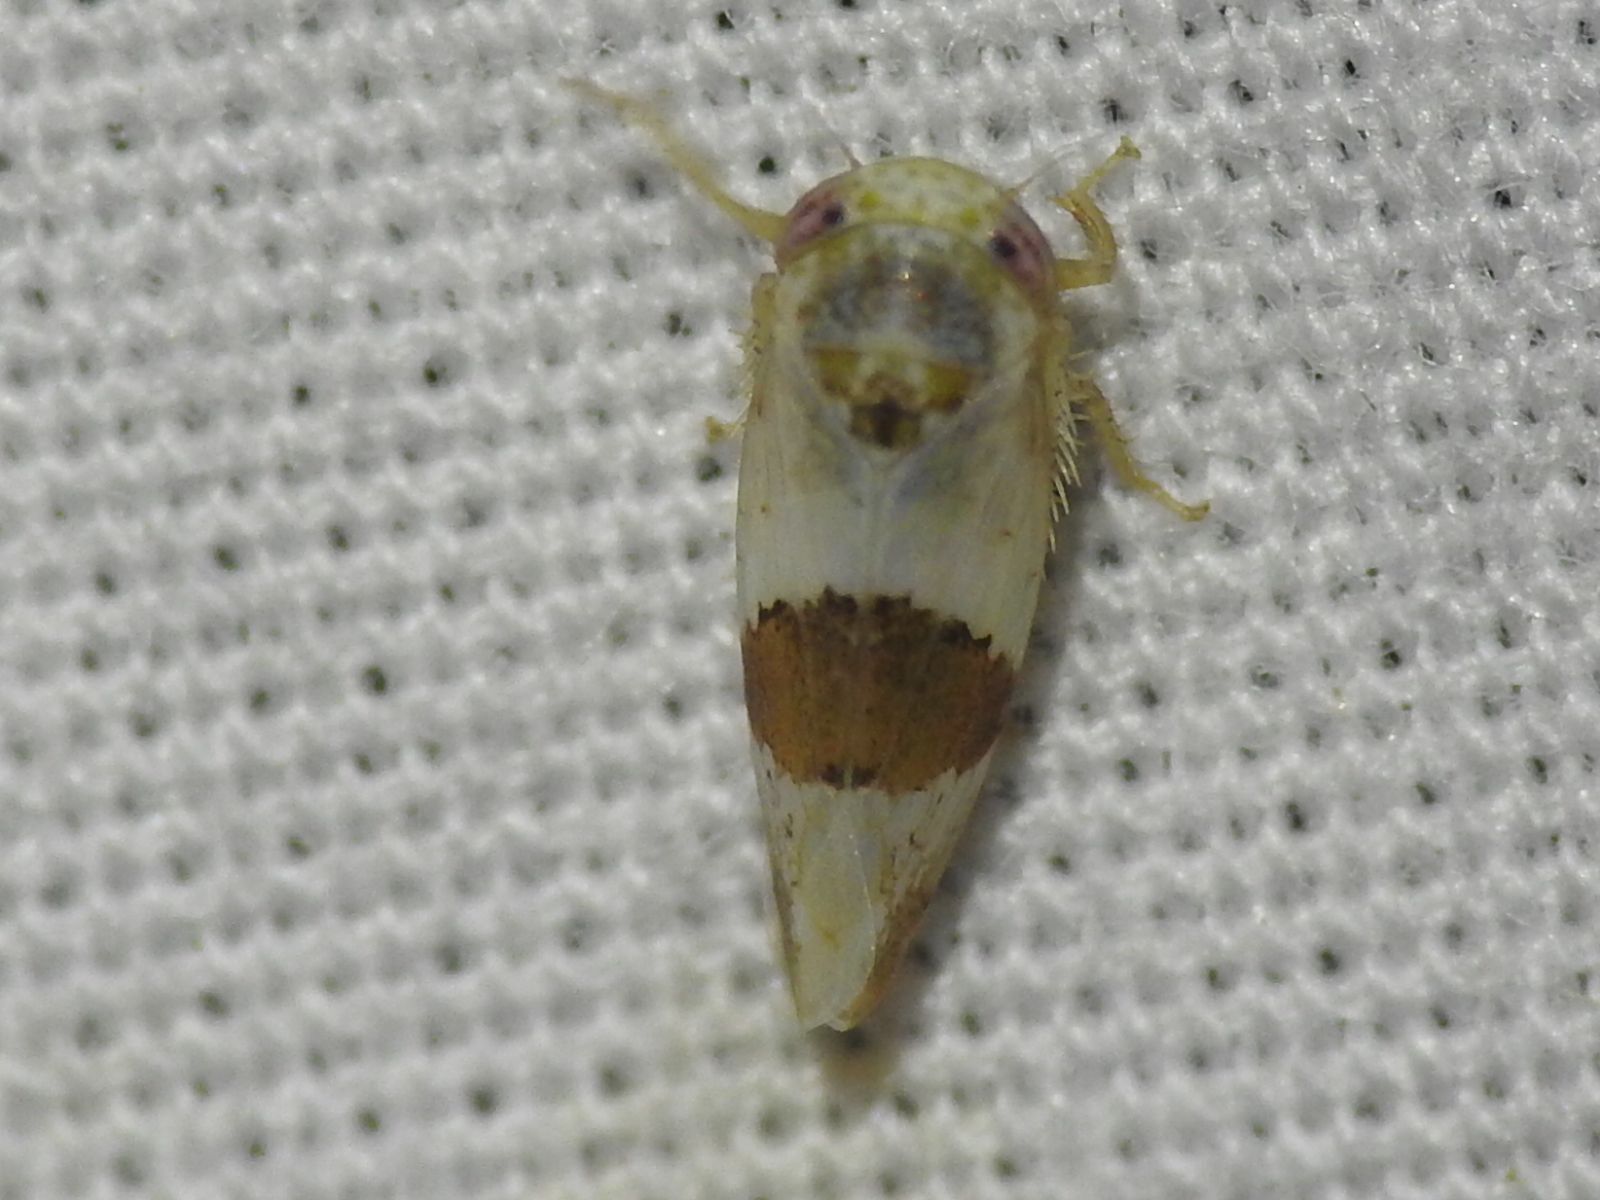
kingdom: Animalia
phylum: Arthropoda
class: Insecta
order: Hemiptera
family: Cicadellidae
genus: Norvellina
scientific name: Norvellina seminuda
